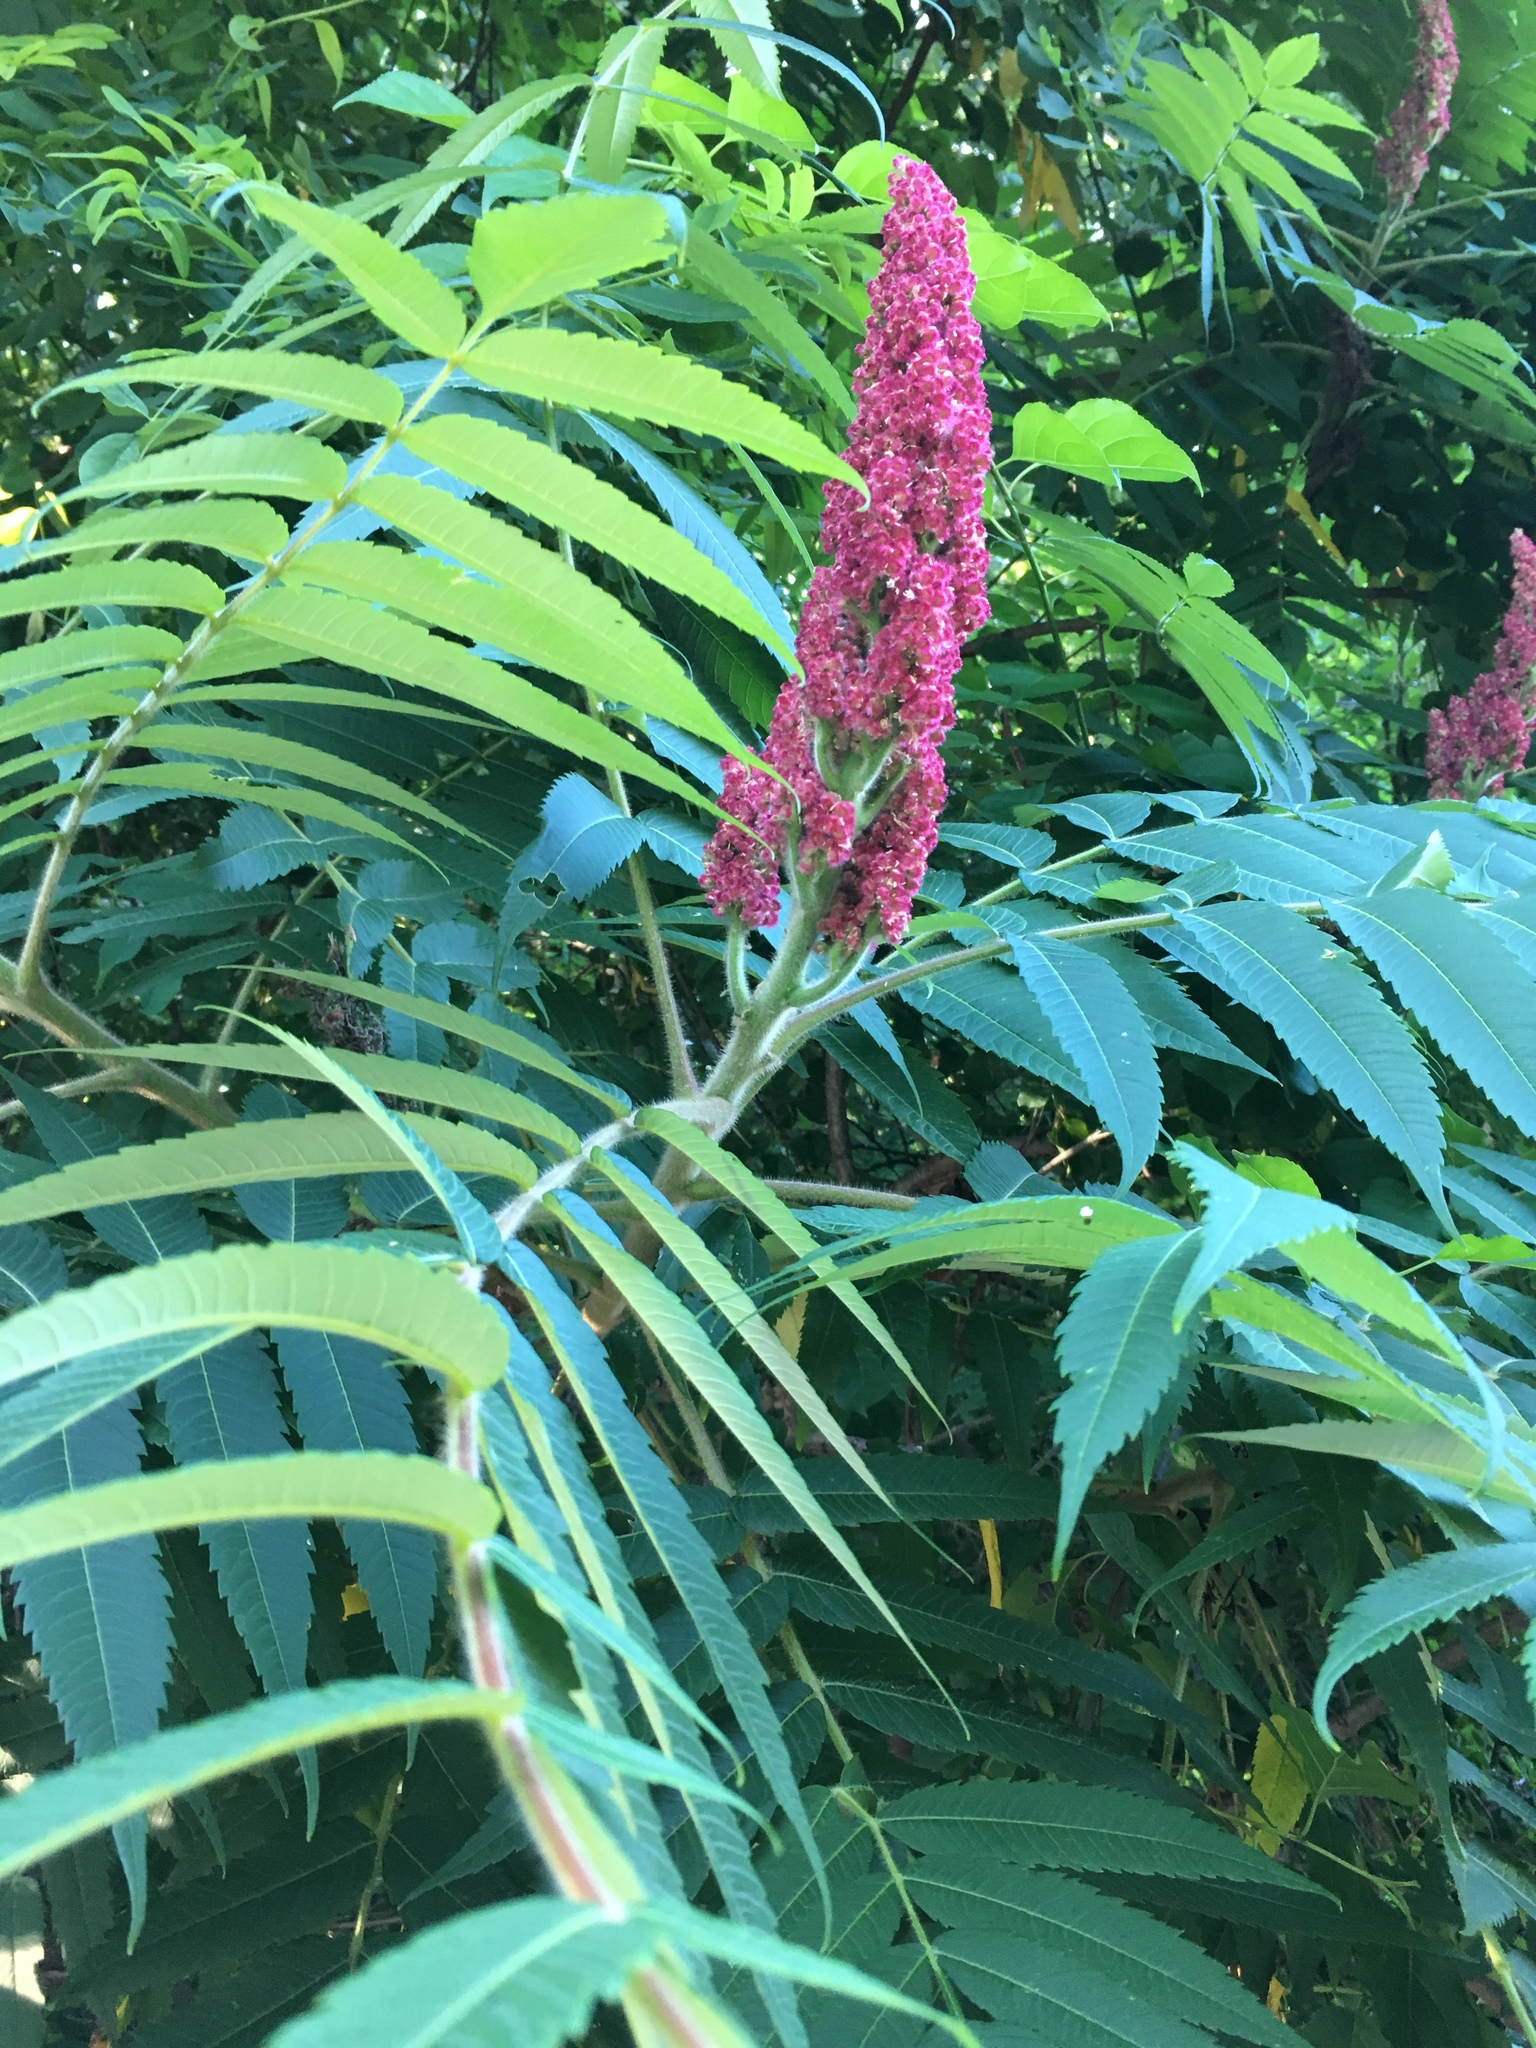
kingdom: Plantae
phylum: Tracheophyta
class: Magnoliopsida
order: Sapindales
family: Anacardiaceae
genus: Rhus
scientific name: Rhus typhina
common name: Staghorn sumac
